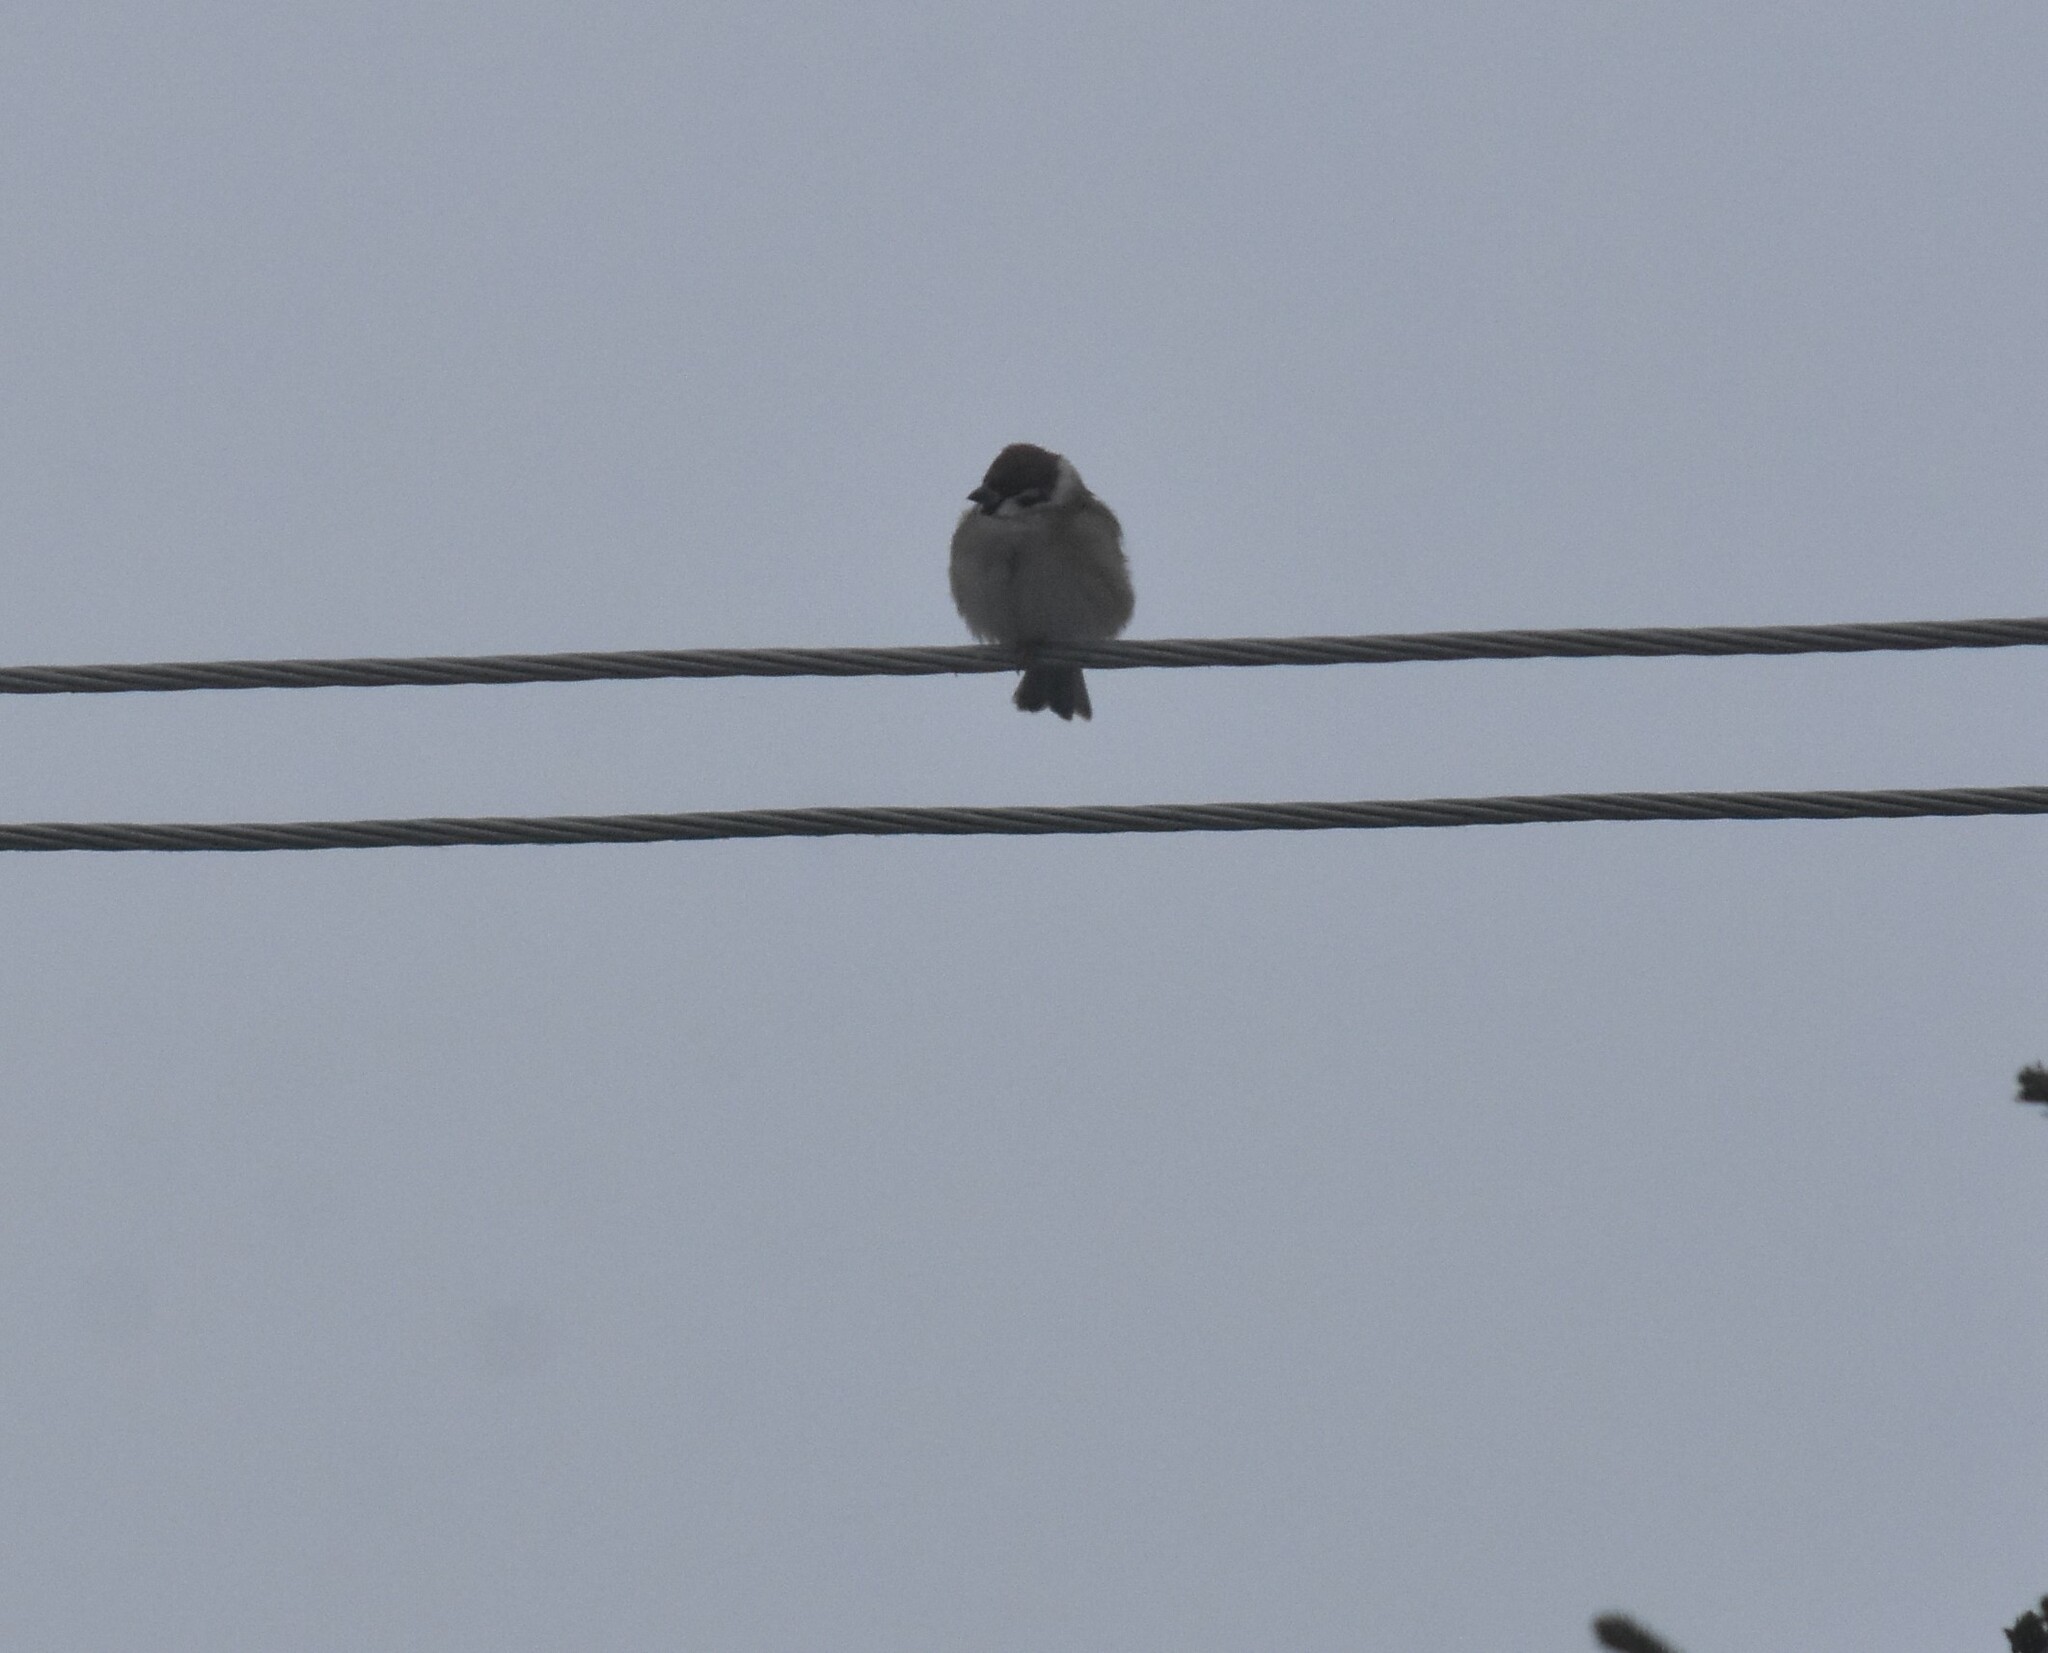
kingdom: Animalia
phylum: Chordata
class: Aves
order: Passeriformes
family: Passeridae
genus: Passer
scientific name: Passer montanus
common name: Eurasian tree sparrow
